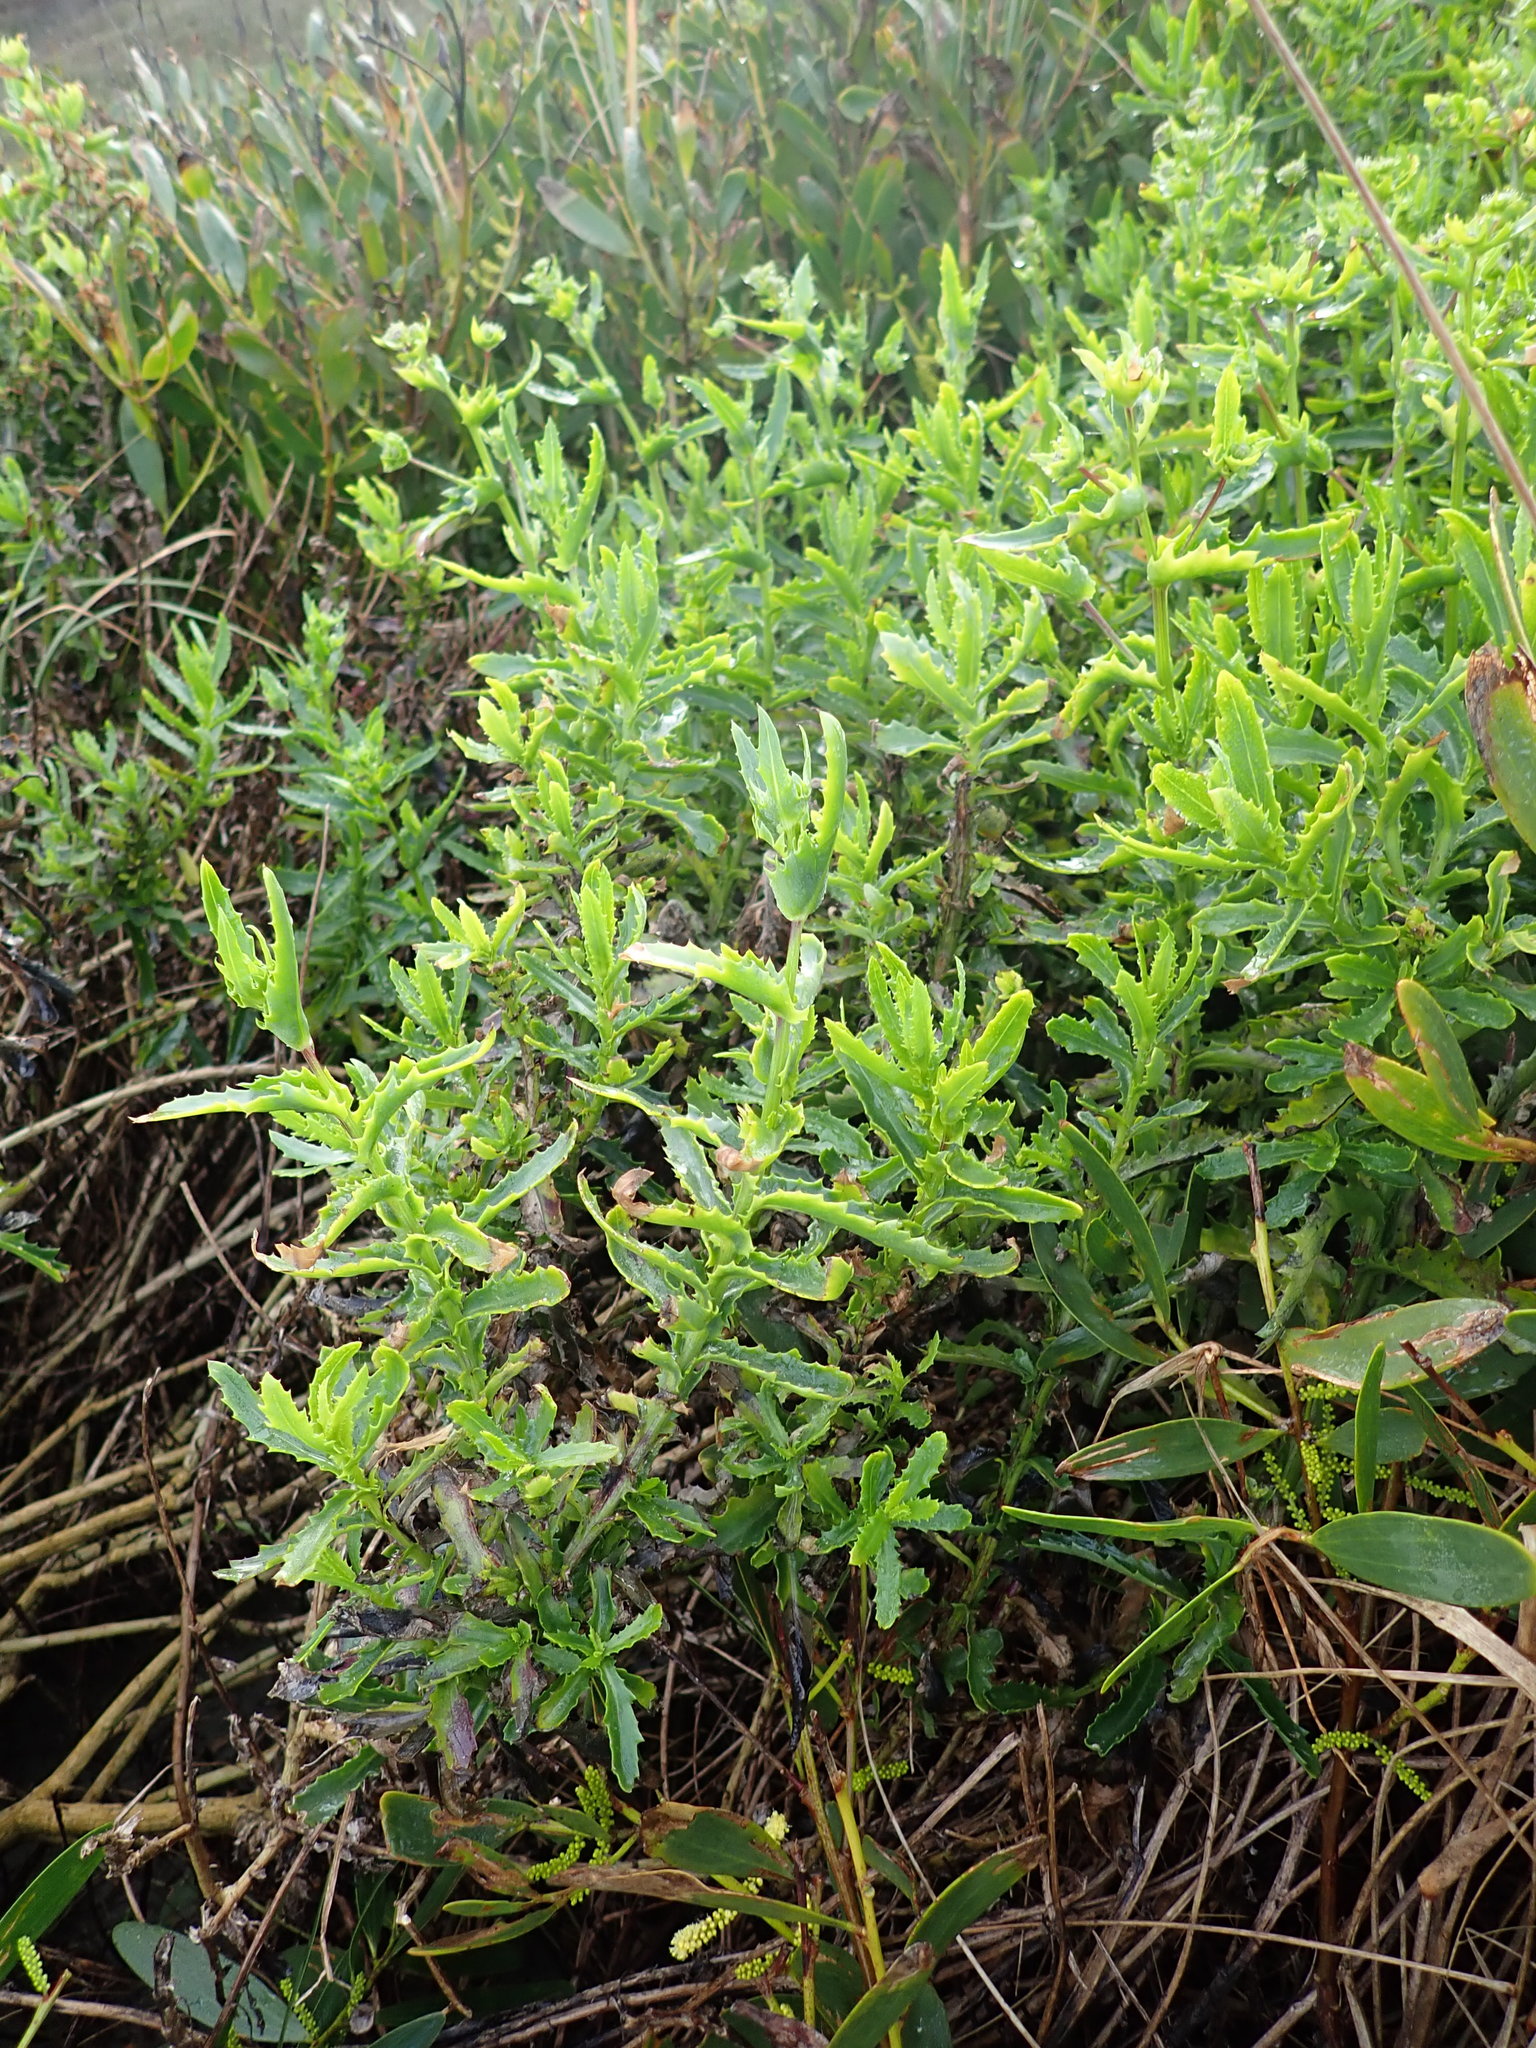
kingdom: Plantae
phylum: Tracheophyta
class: Magnoliopsida
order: Asterales
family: Asteraceae
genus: Senecio
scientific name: Senecio glastifolius
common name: Woad-leaved ragwort
